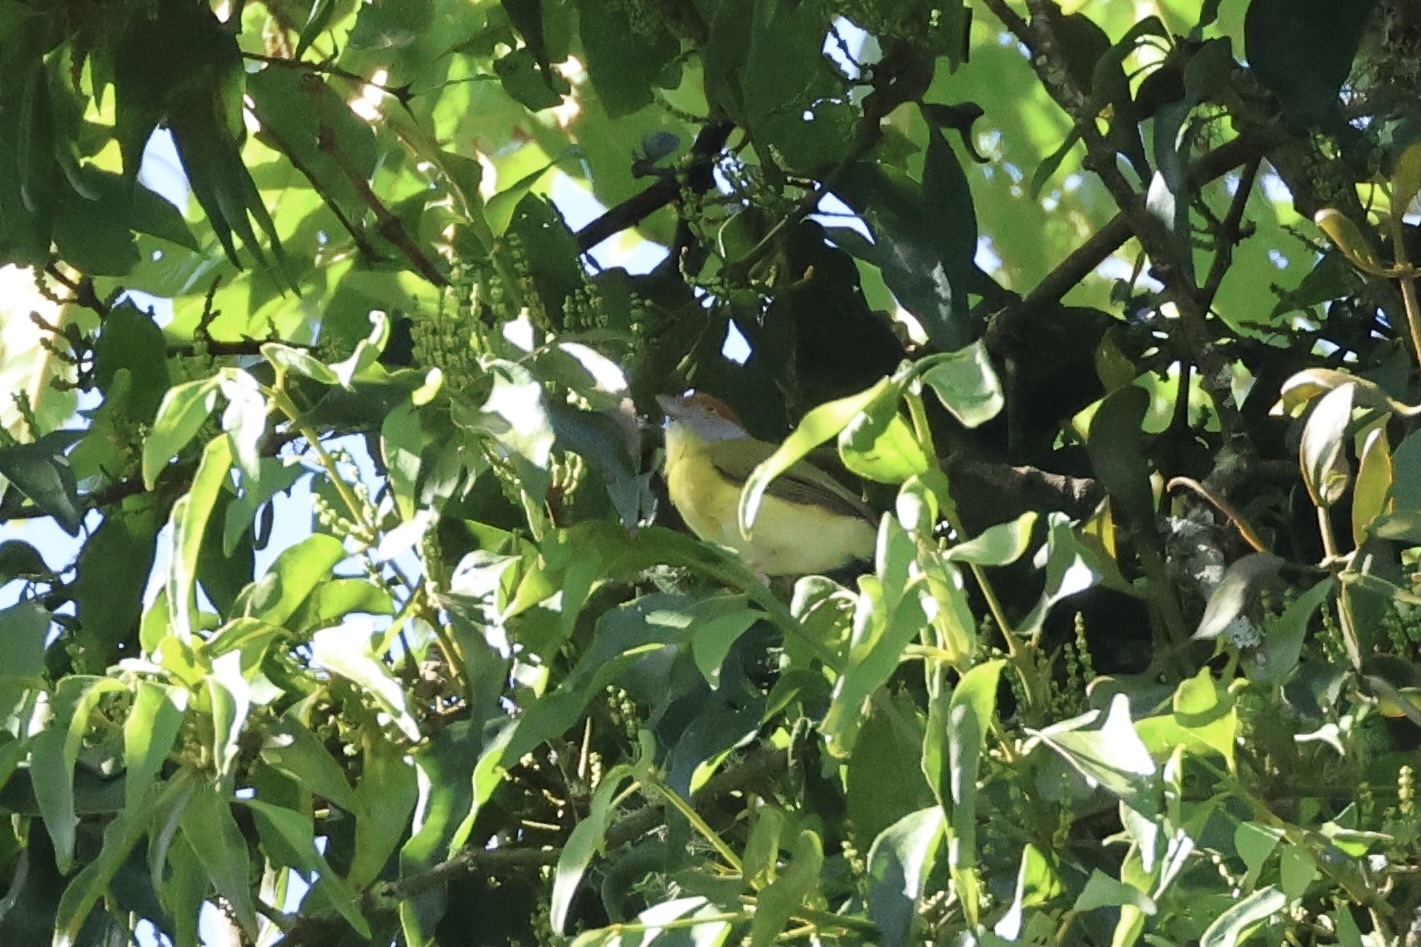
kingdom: Animalia
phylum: Chordata
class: Aves
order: Passeriformes
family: Vireonidae
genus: Cyclarhis
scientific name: Cyclarhis gujanensis
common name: Rufous-browed peppershrike
